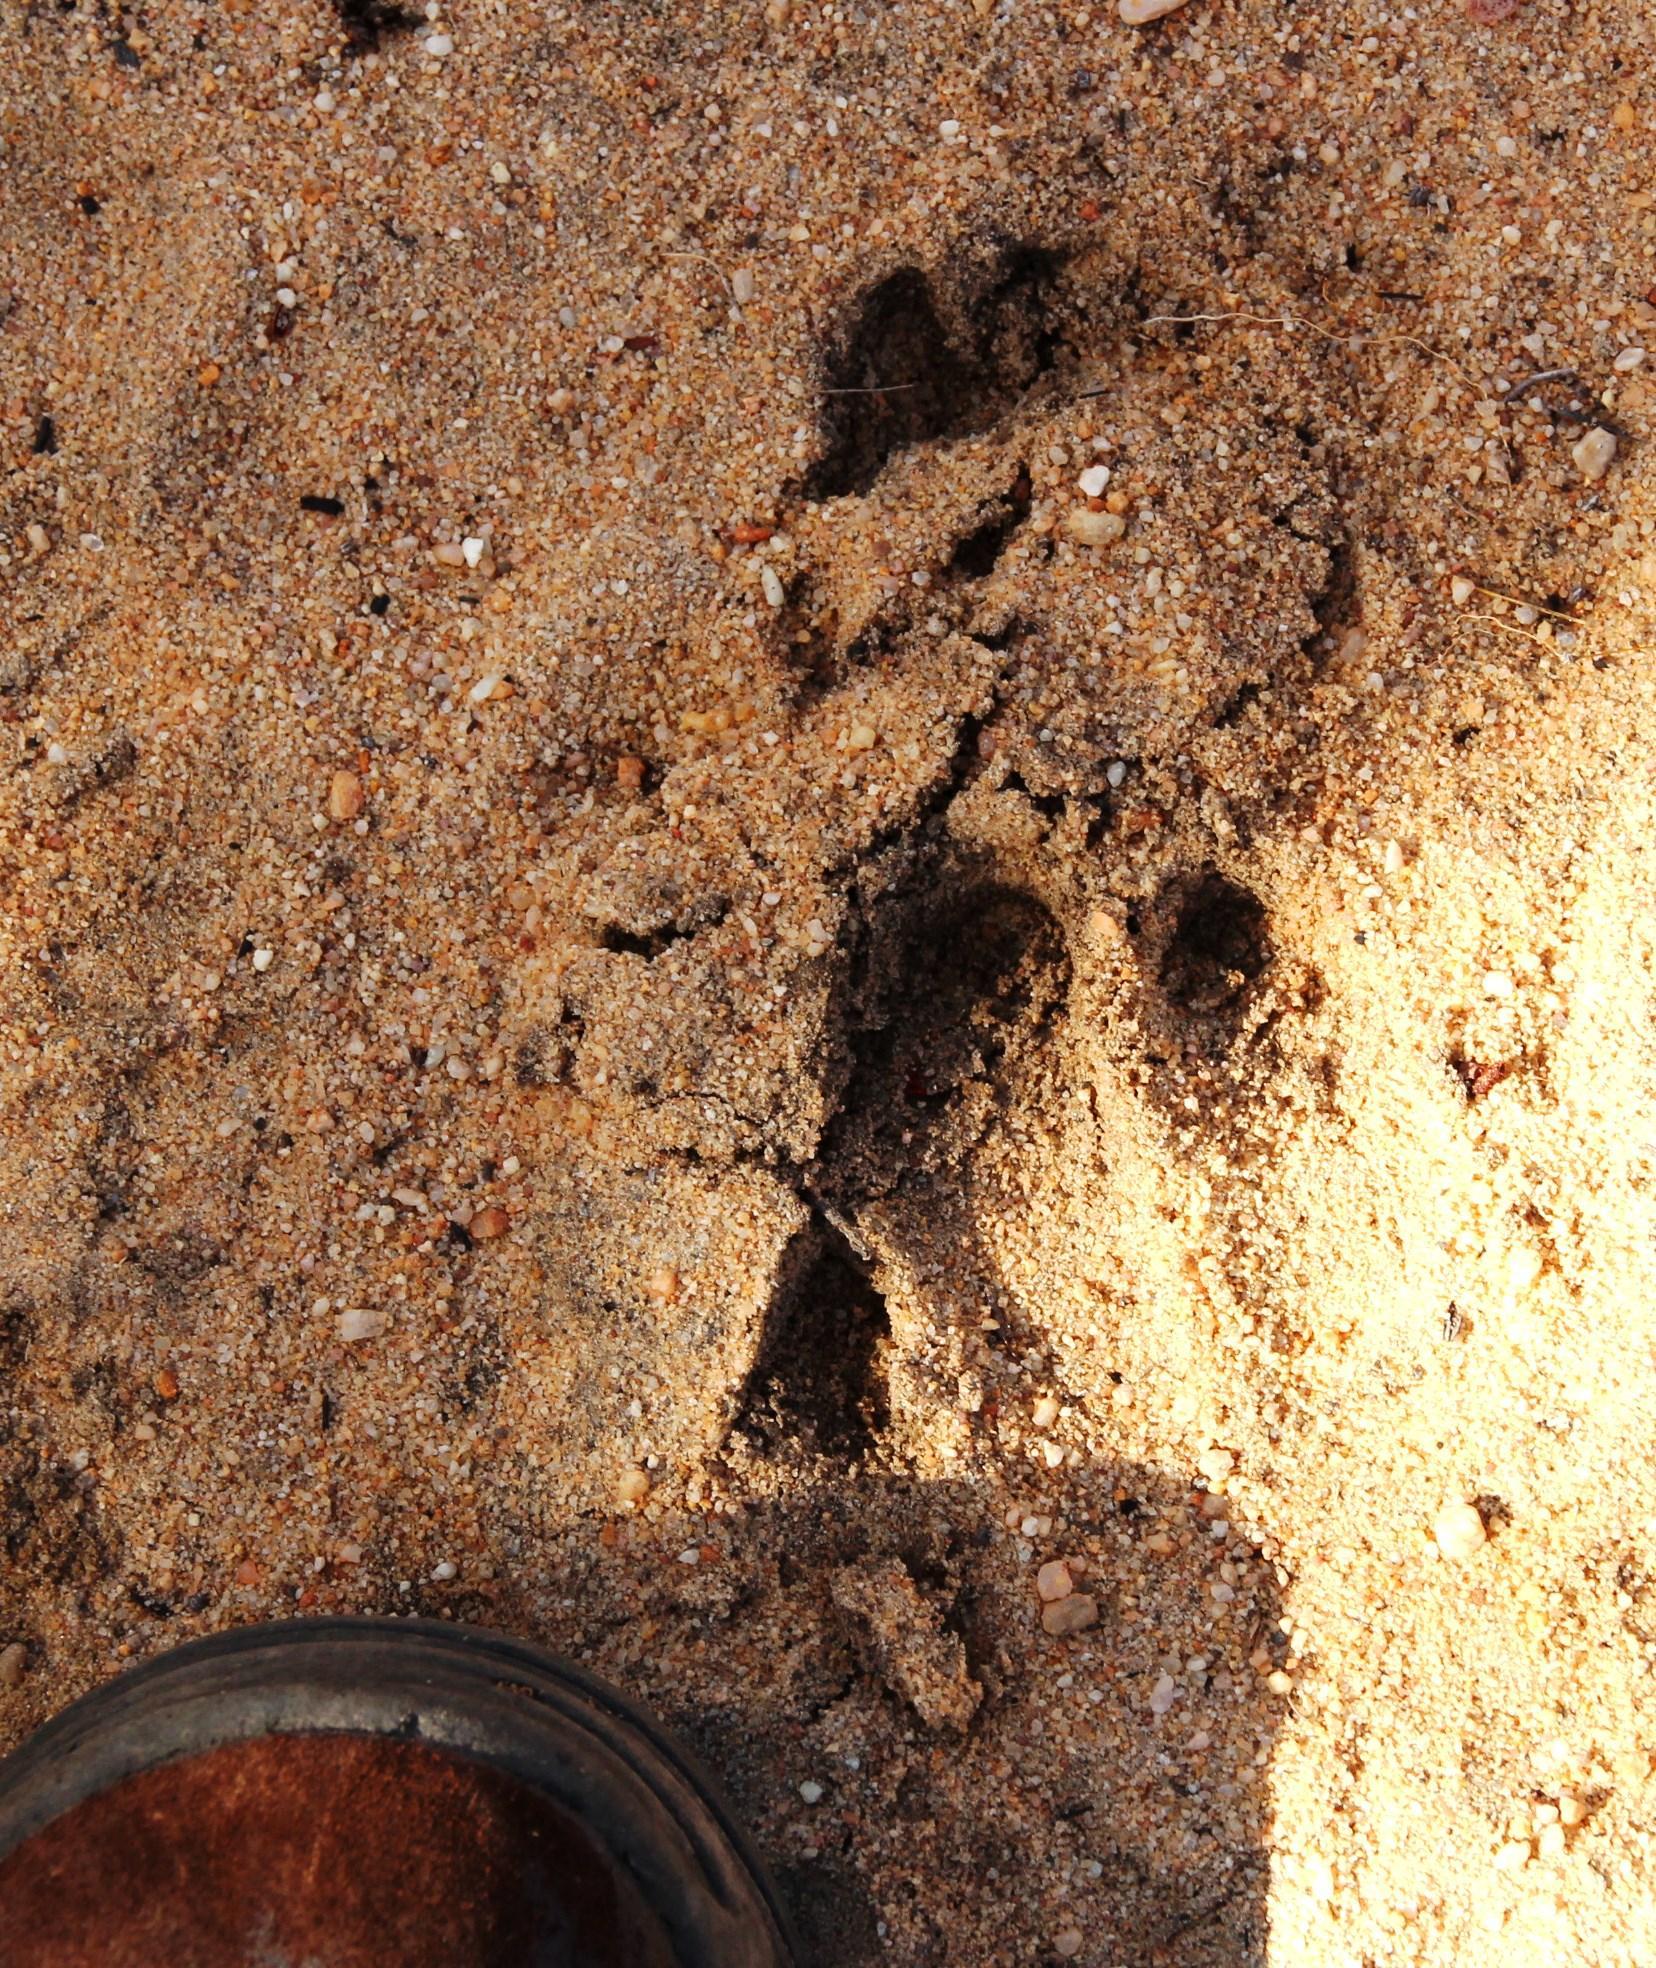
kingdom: Animalia
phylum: Chordata
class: Mammalia
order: Tubulidentata
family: Orycteropodidae
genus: Orycteropus
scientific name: Orycteropus afer
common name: Aardvark
